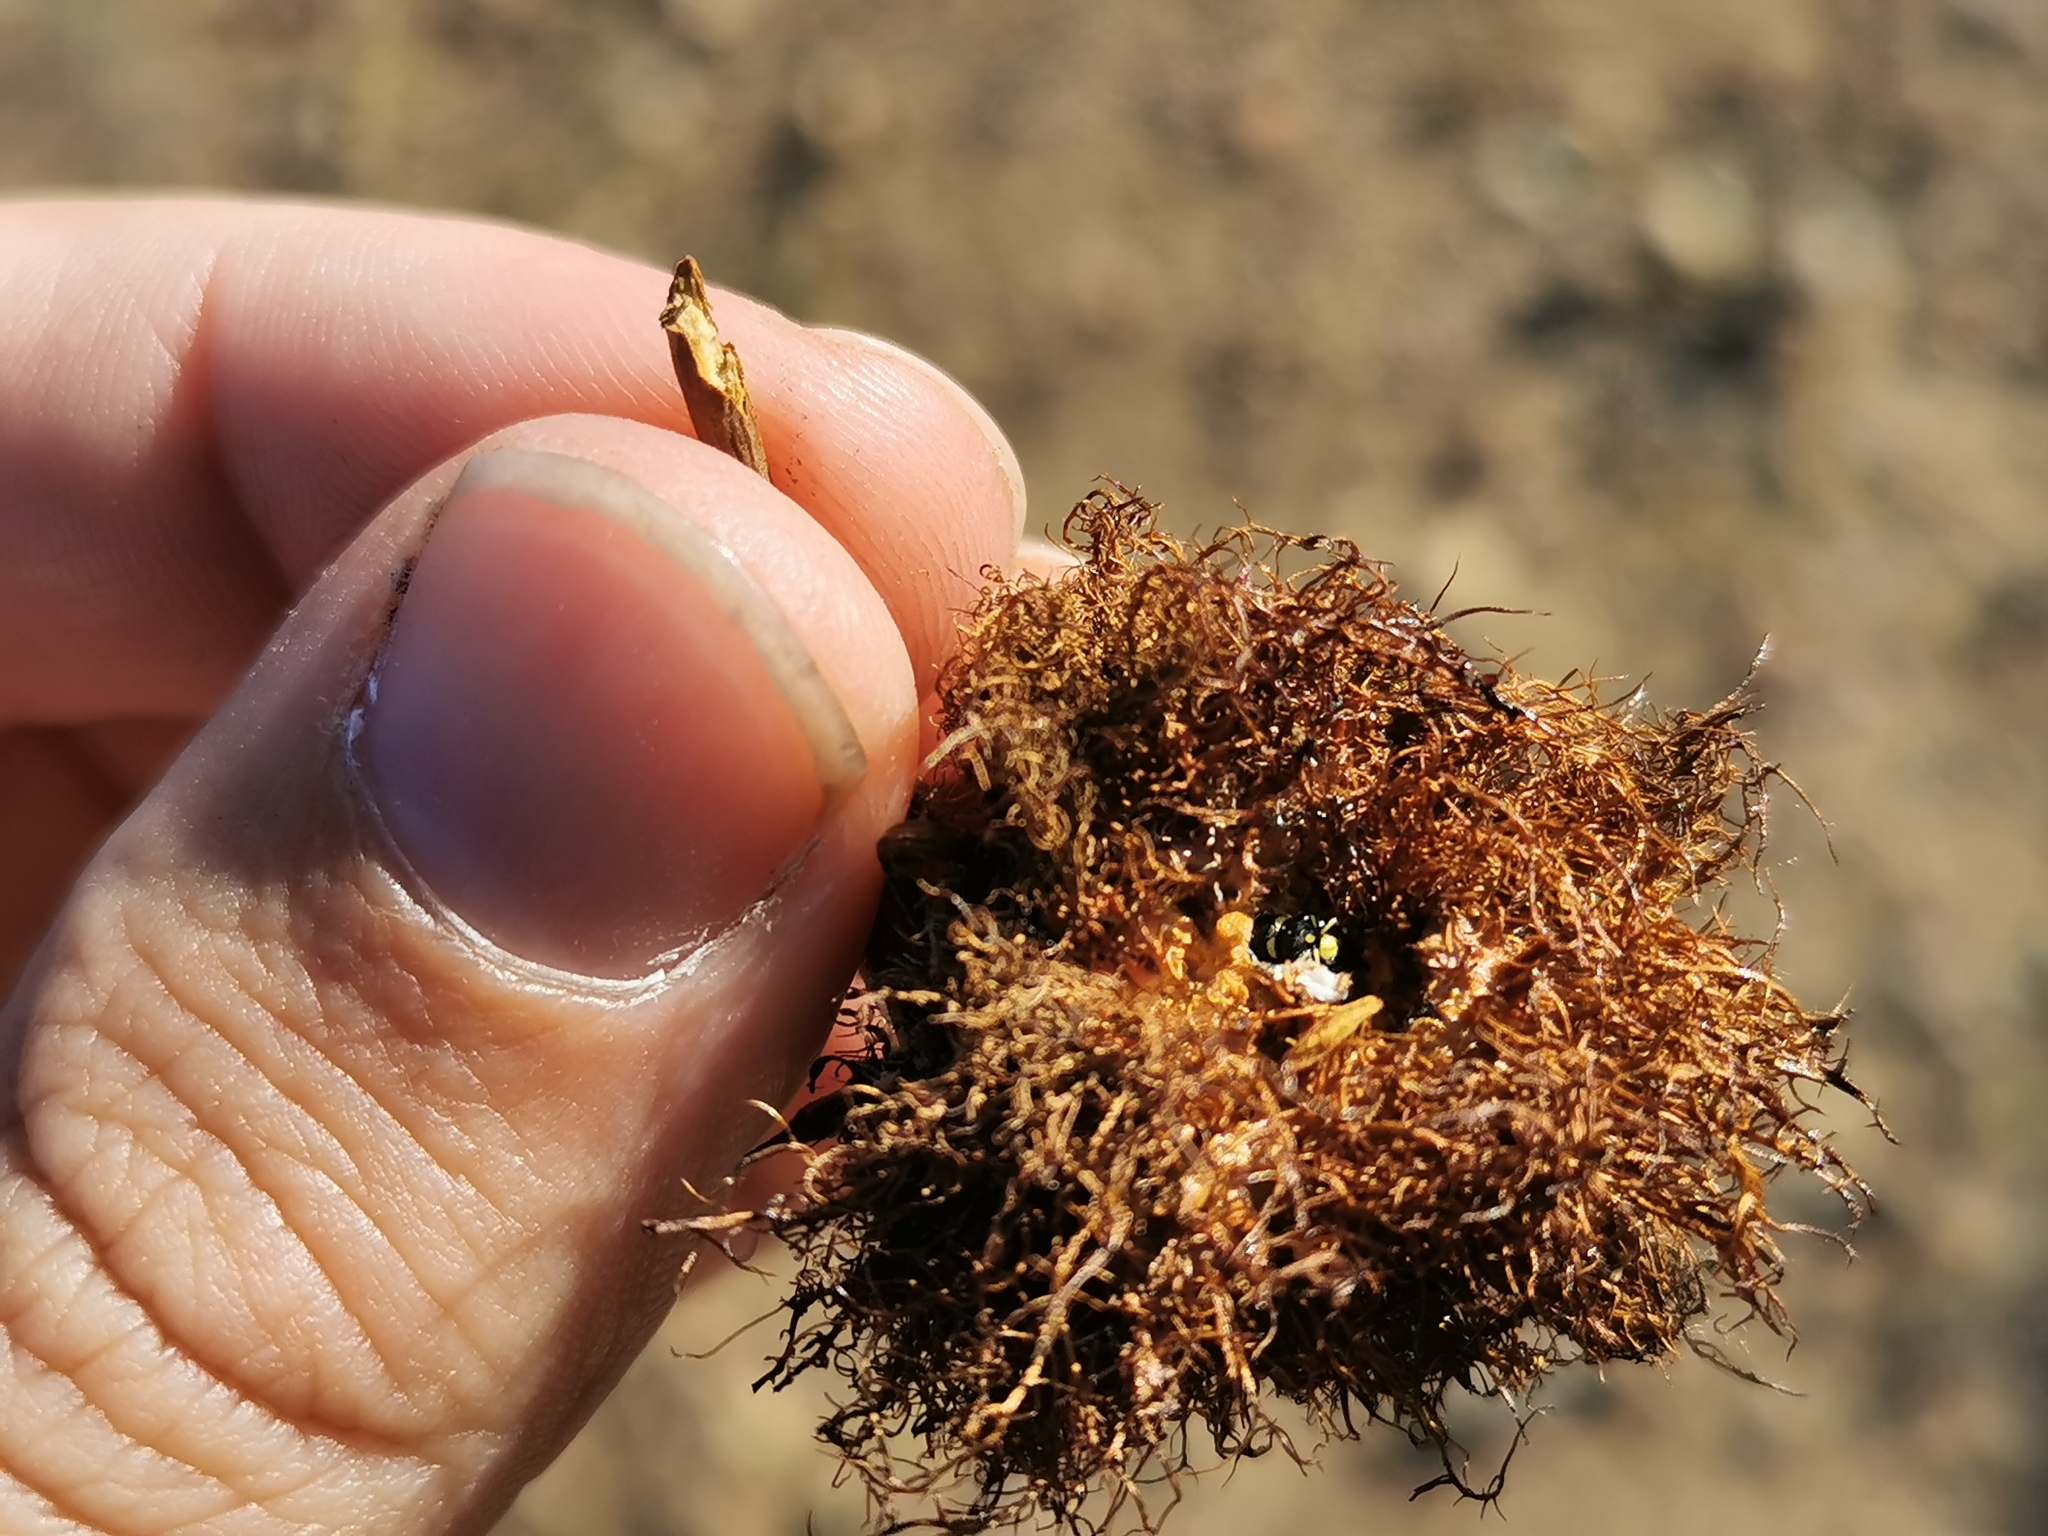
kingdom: Animalia
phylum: Arthropoda
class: Insecta
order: Hymenoptera
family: Cynipidae
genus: Diplolepis
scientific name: Diplolepis rosae
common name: Bedeguar gall
